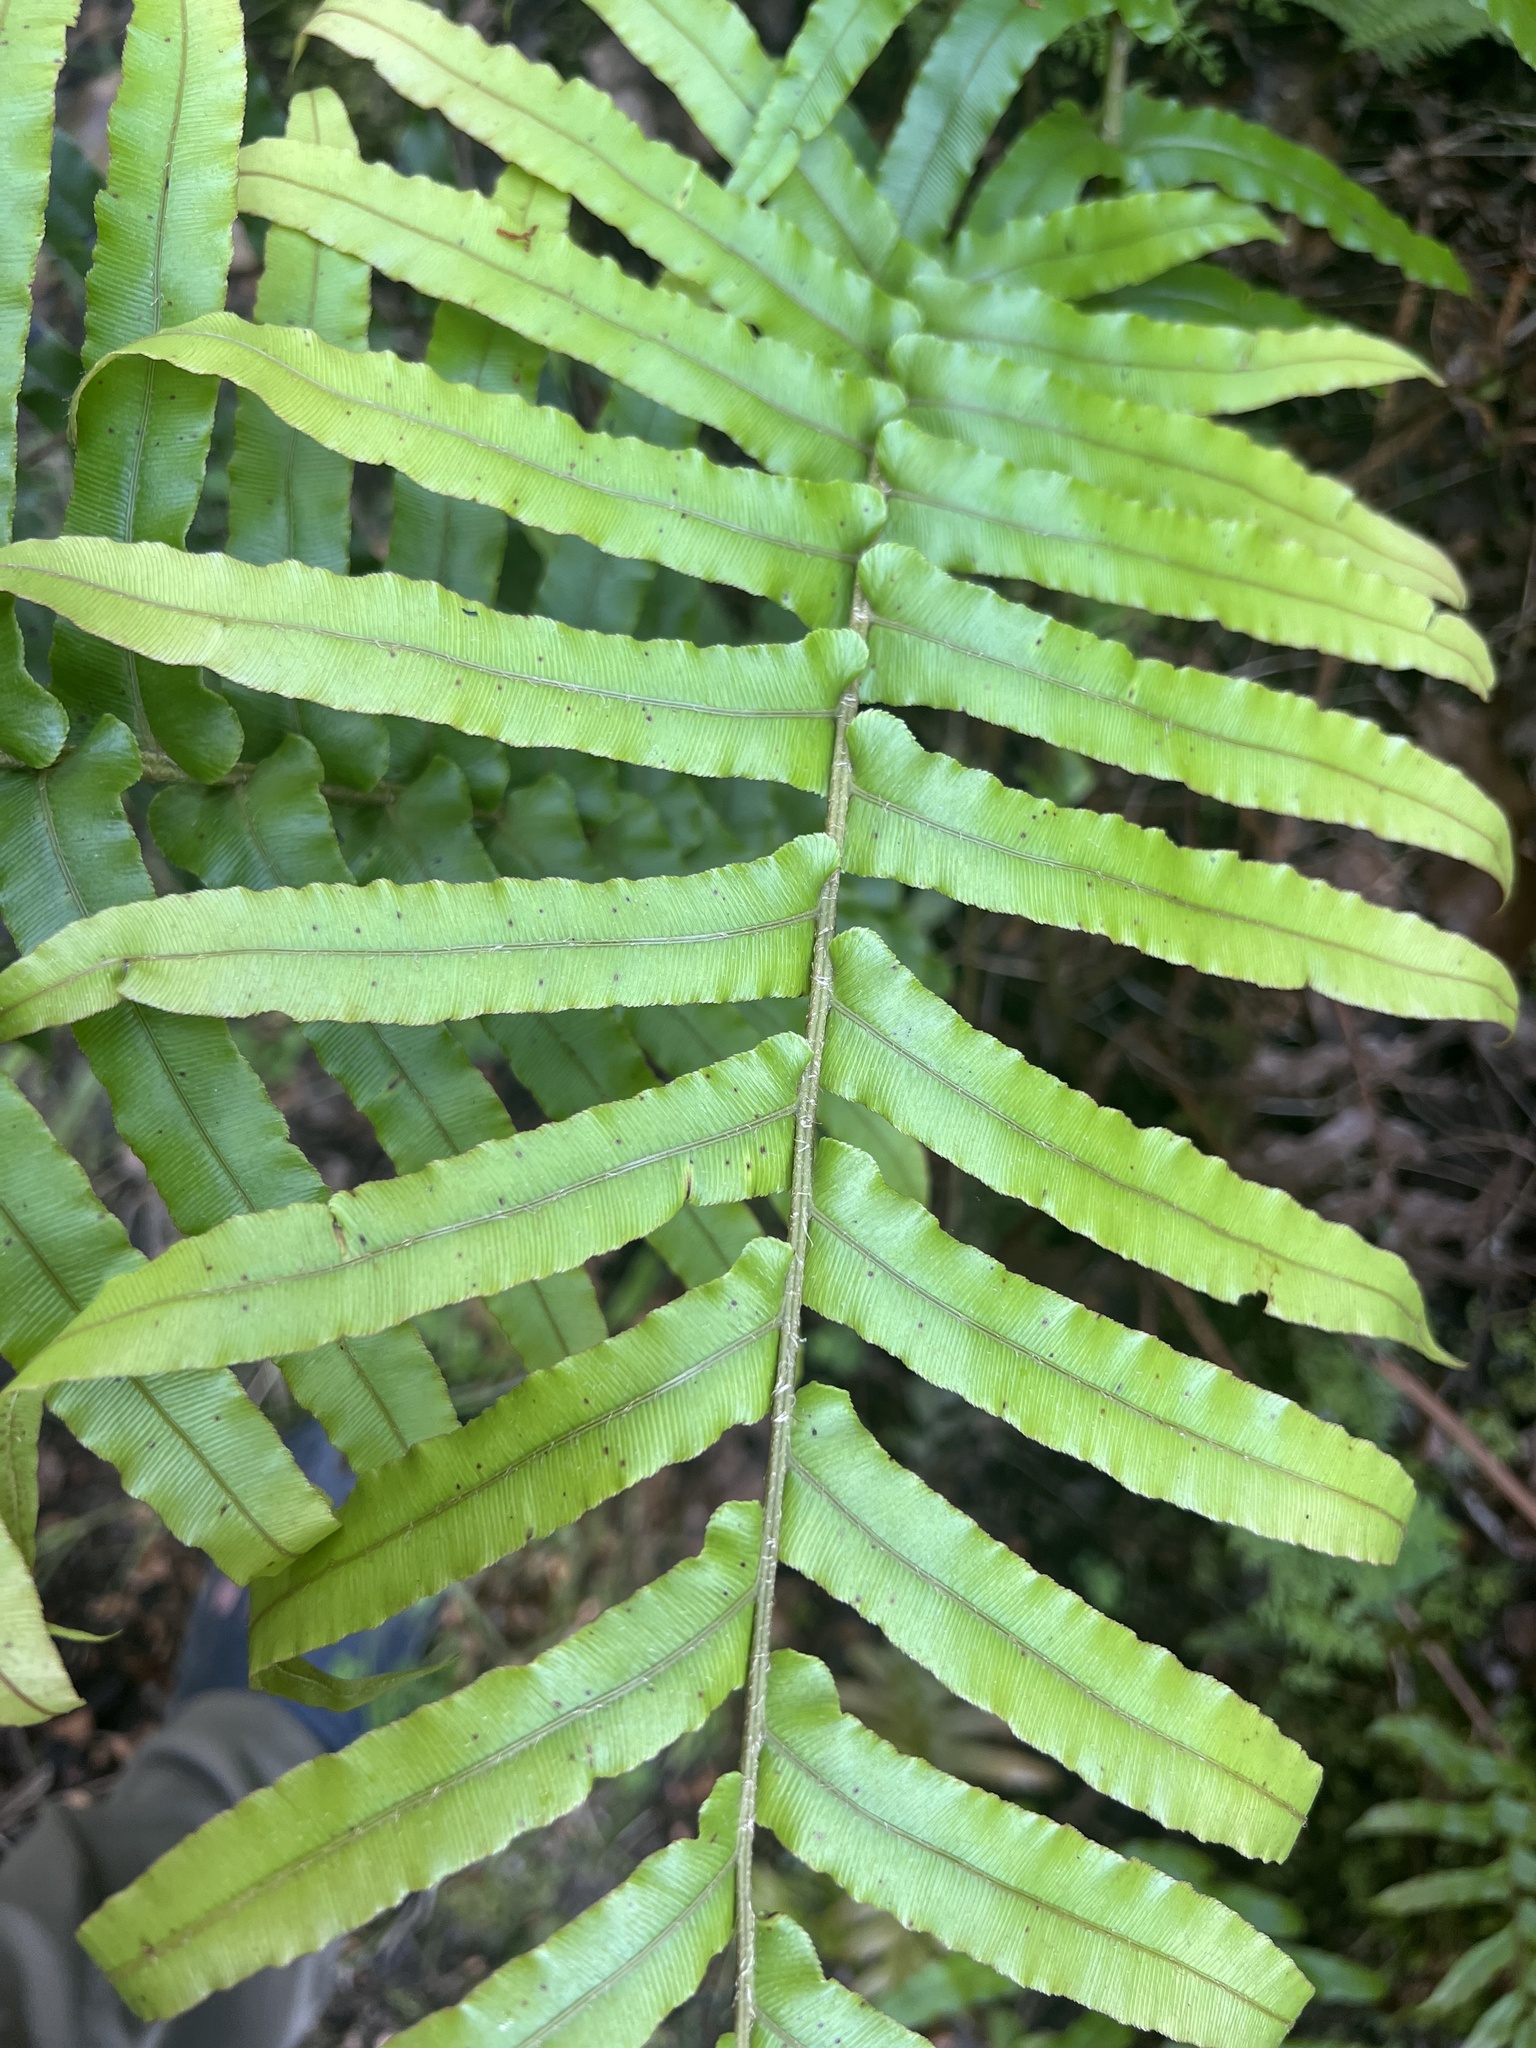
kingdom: Plantae
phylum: Tracheophyta
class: Polypodiopsida
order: Polypodiales
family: Blechnaceae
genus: Parablechnum
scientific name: Parablechnum novae-zelandiae
